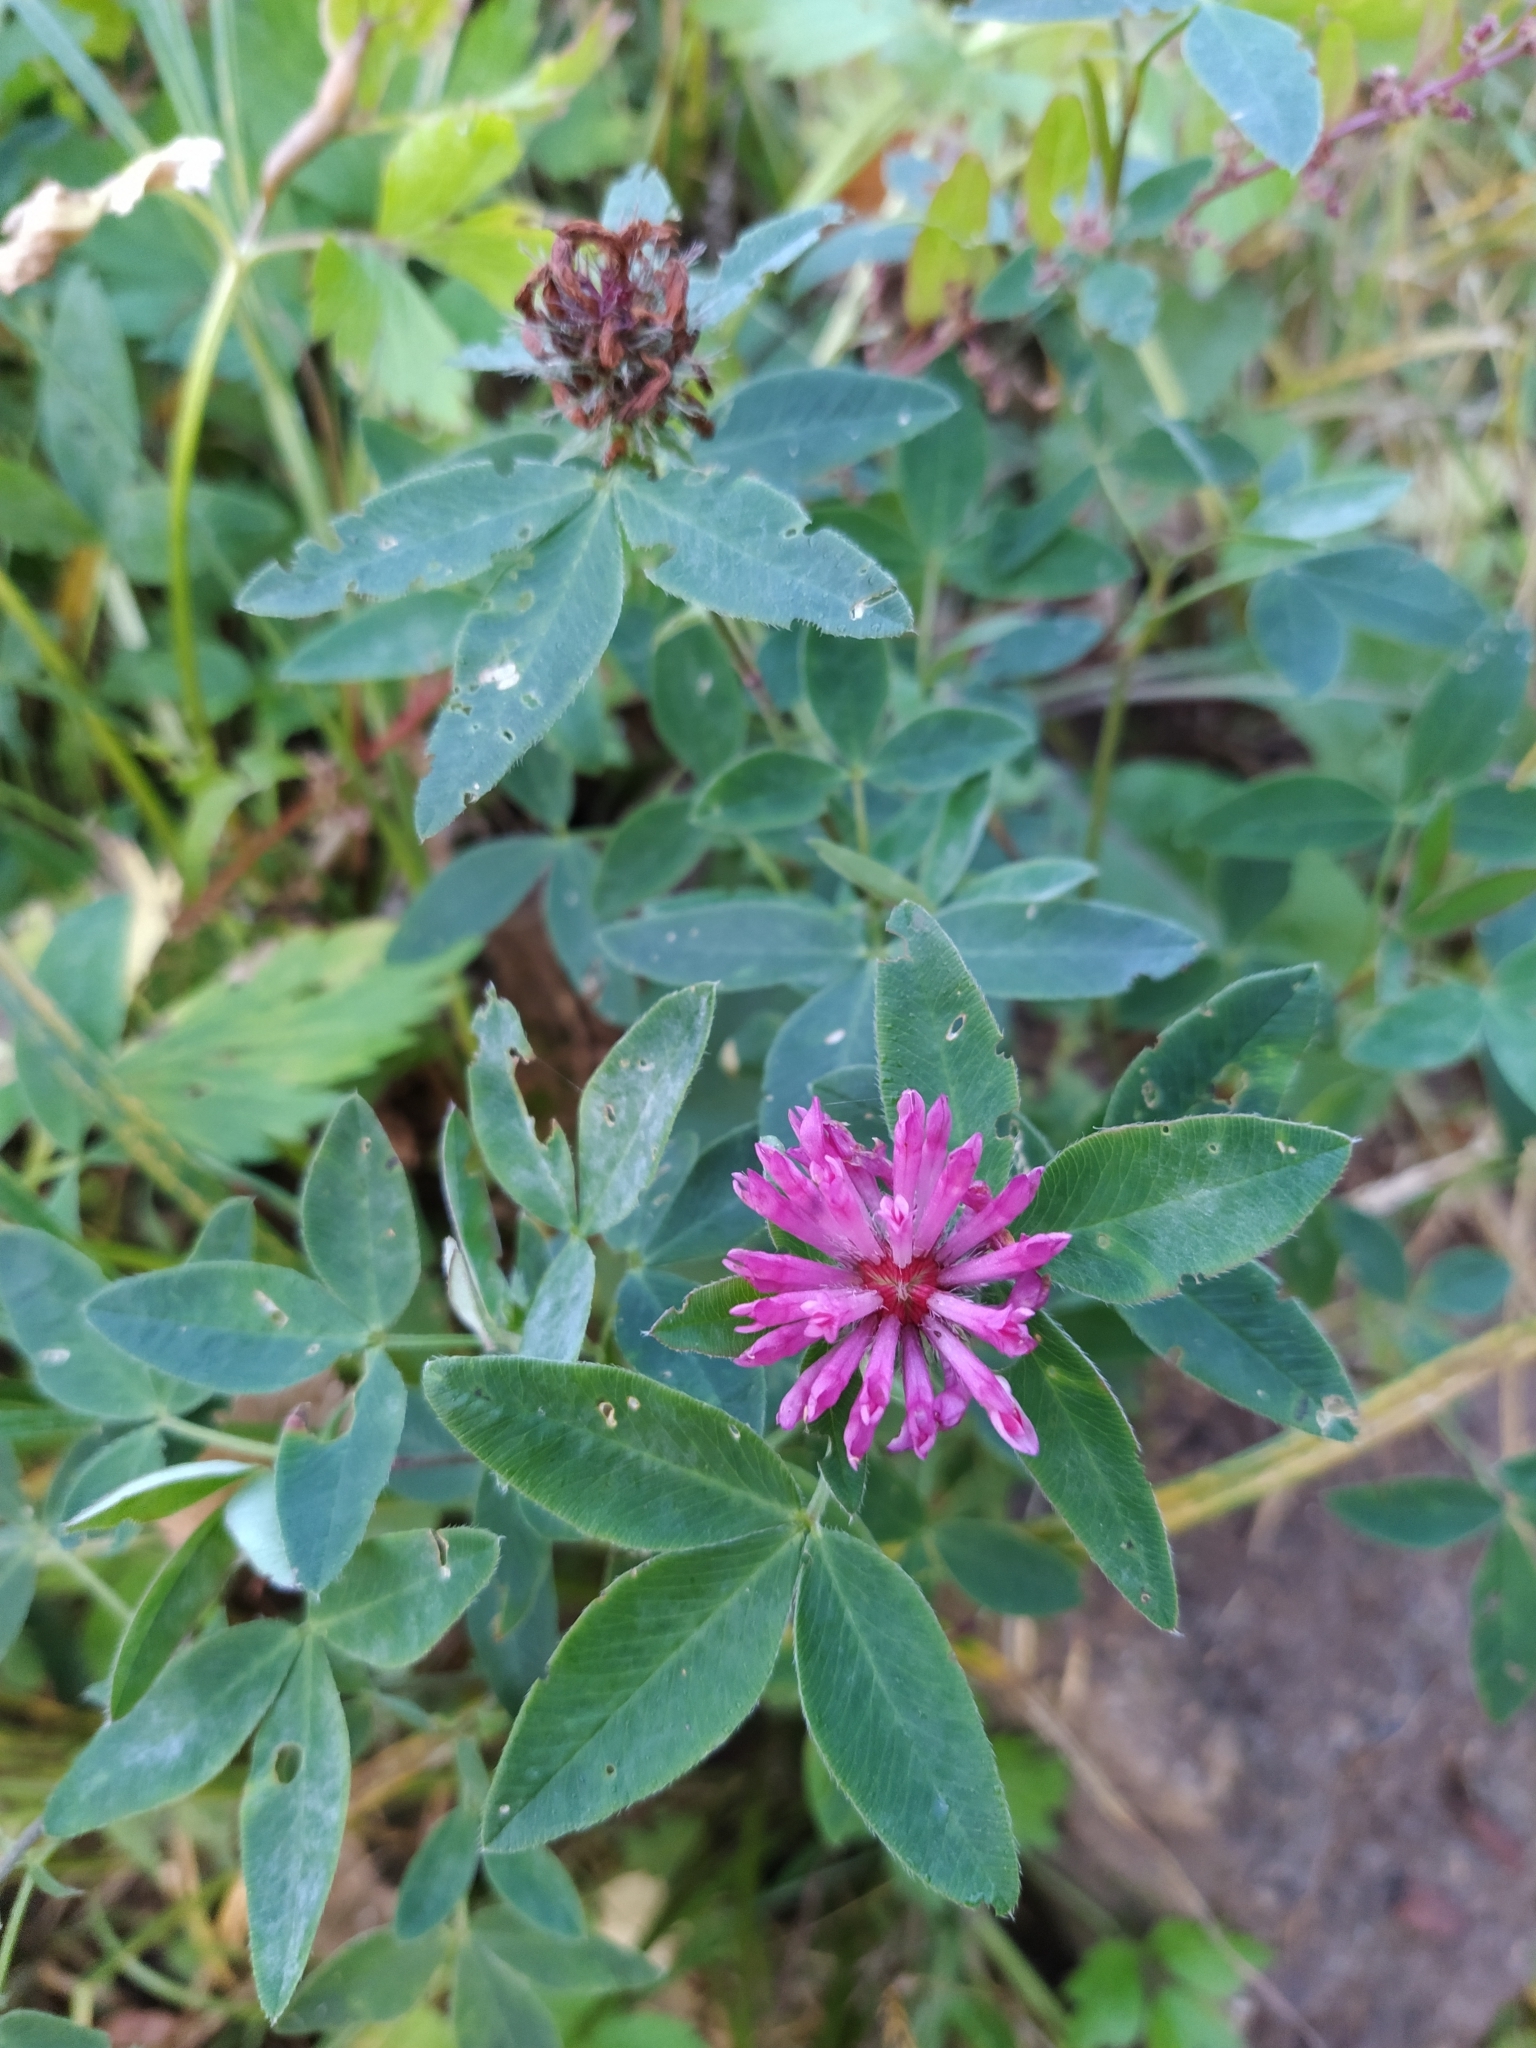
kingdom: Plantae
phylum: Tracheophyta
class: Magnoliopsida
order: Fabales
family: Fabaceae
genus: Trifolium
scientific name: Trifolium medium
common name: Zigzag clover
